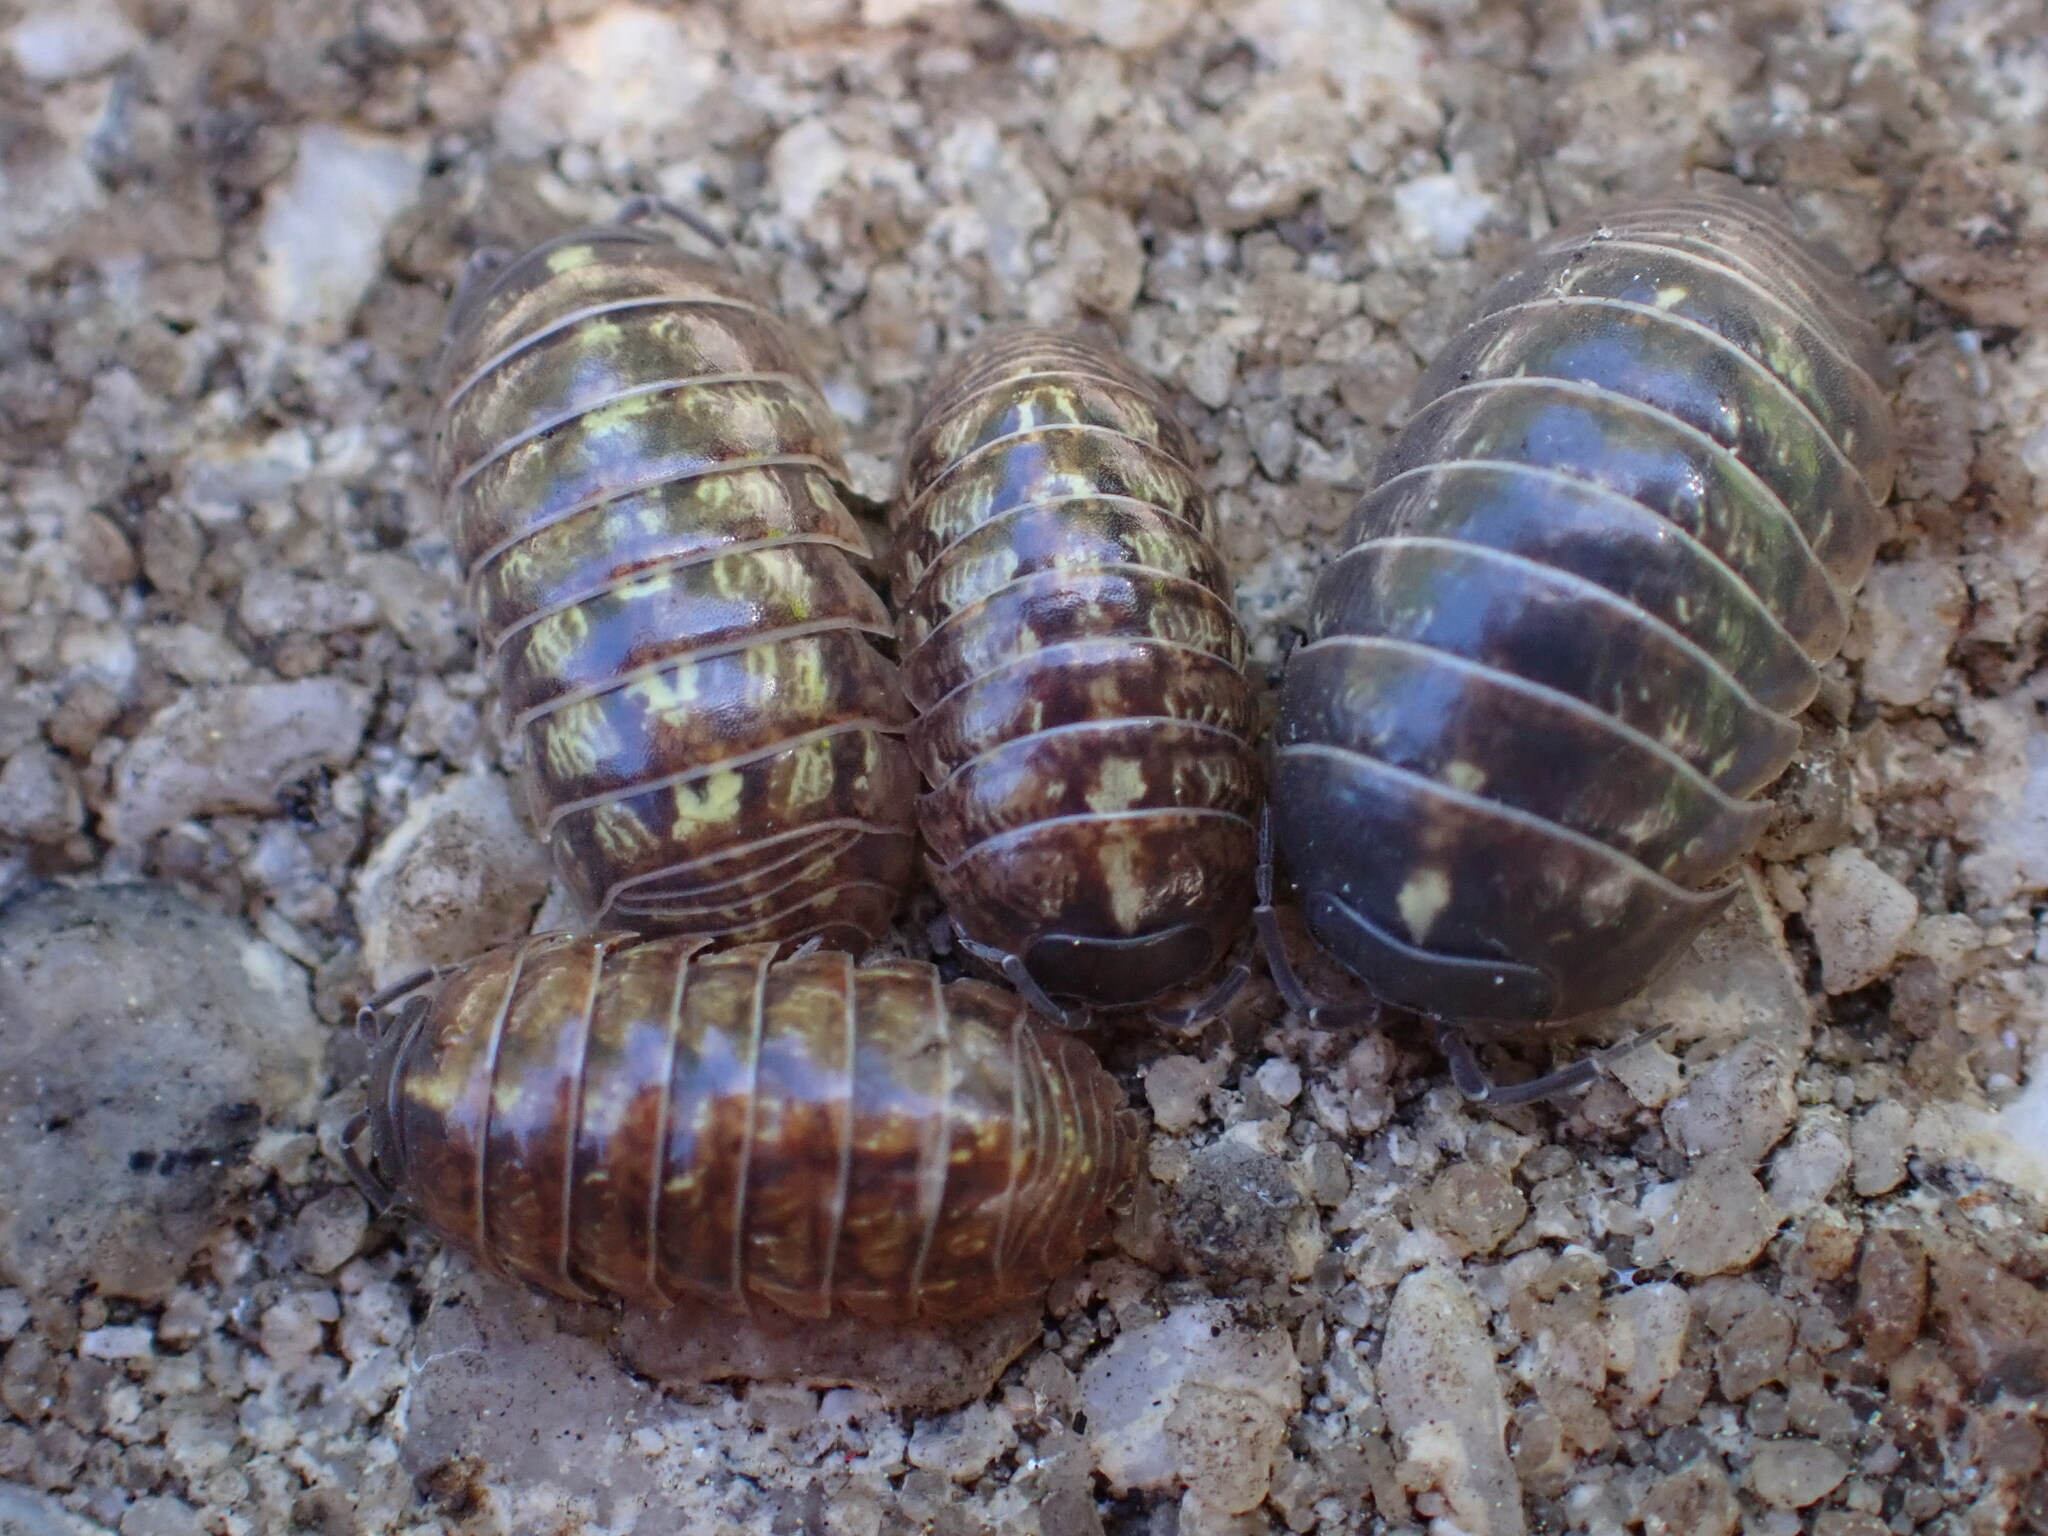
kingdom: Animalia
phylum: Arthropoda
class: Malacostraca
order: Isopoda
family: Armadillidiidae
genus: Armadillidium
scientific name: Armadillidium vulgare
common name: Common pill woodlouse
